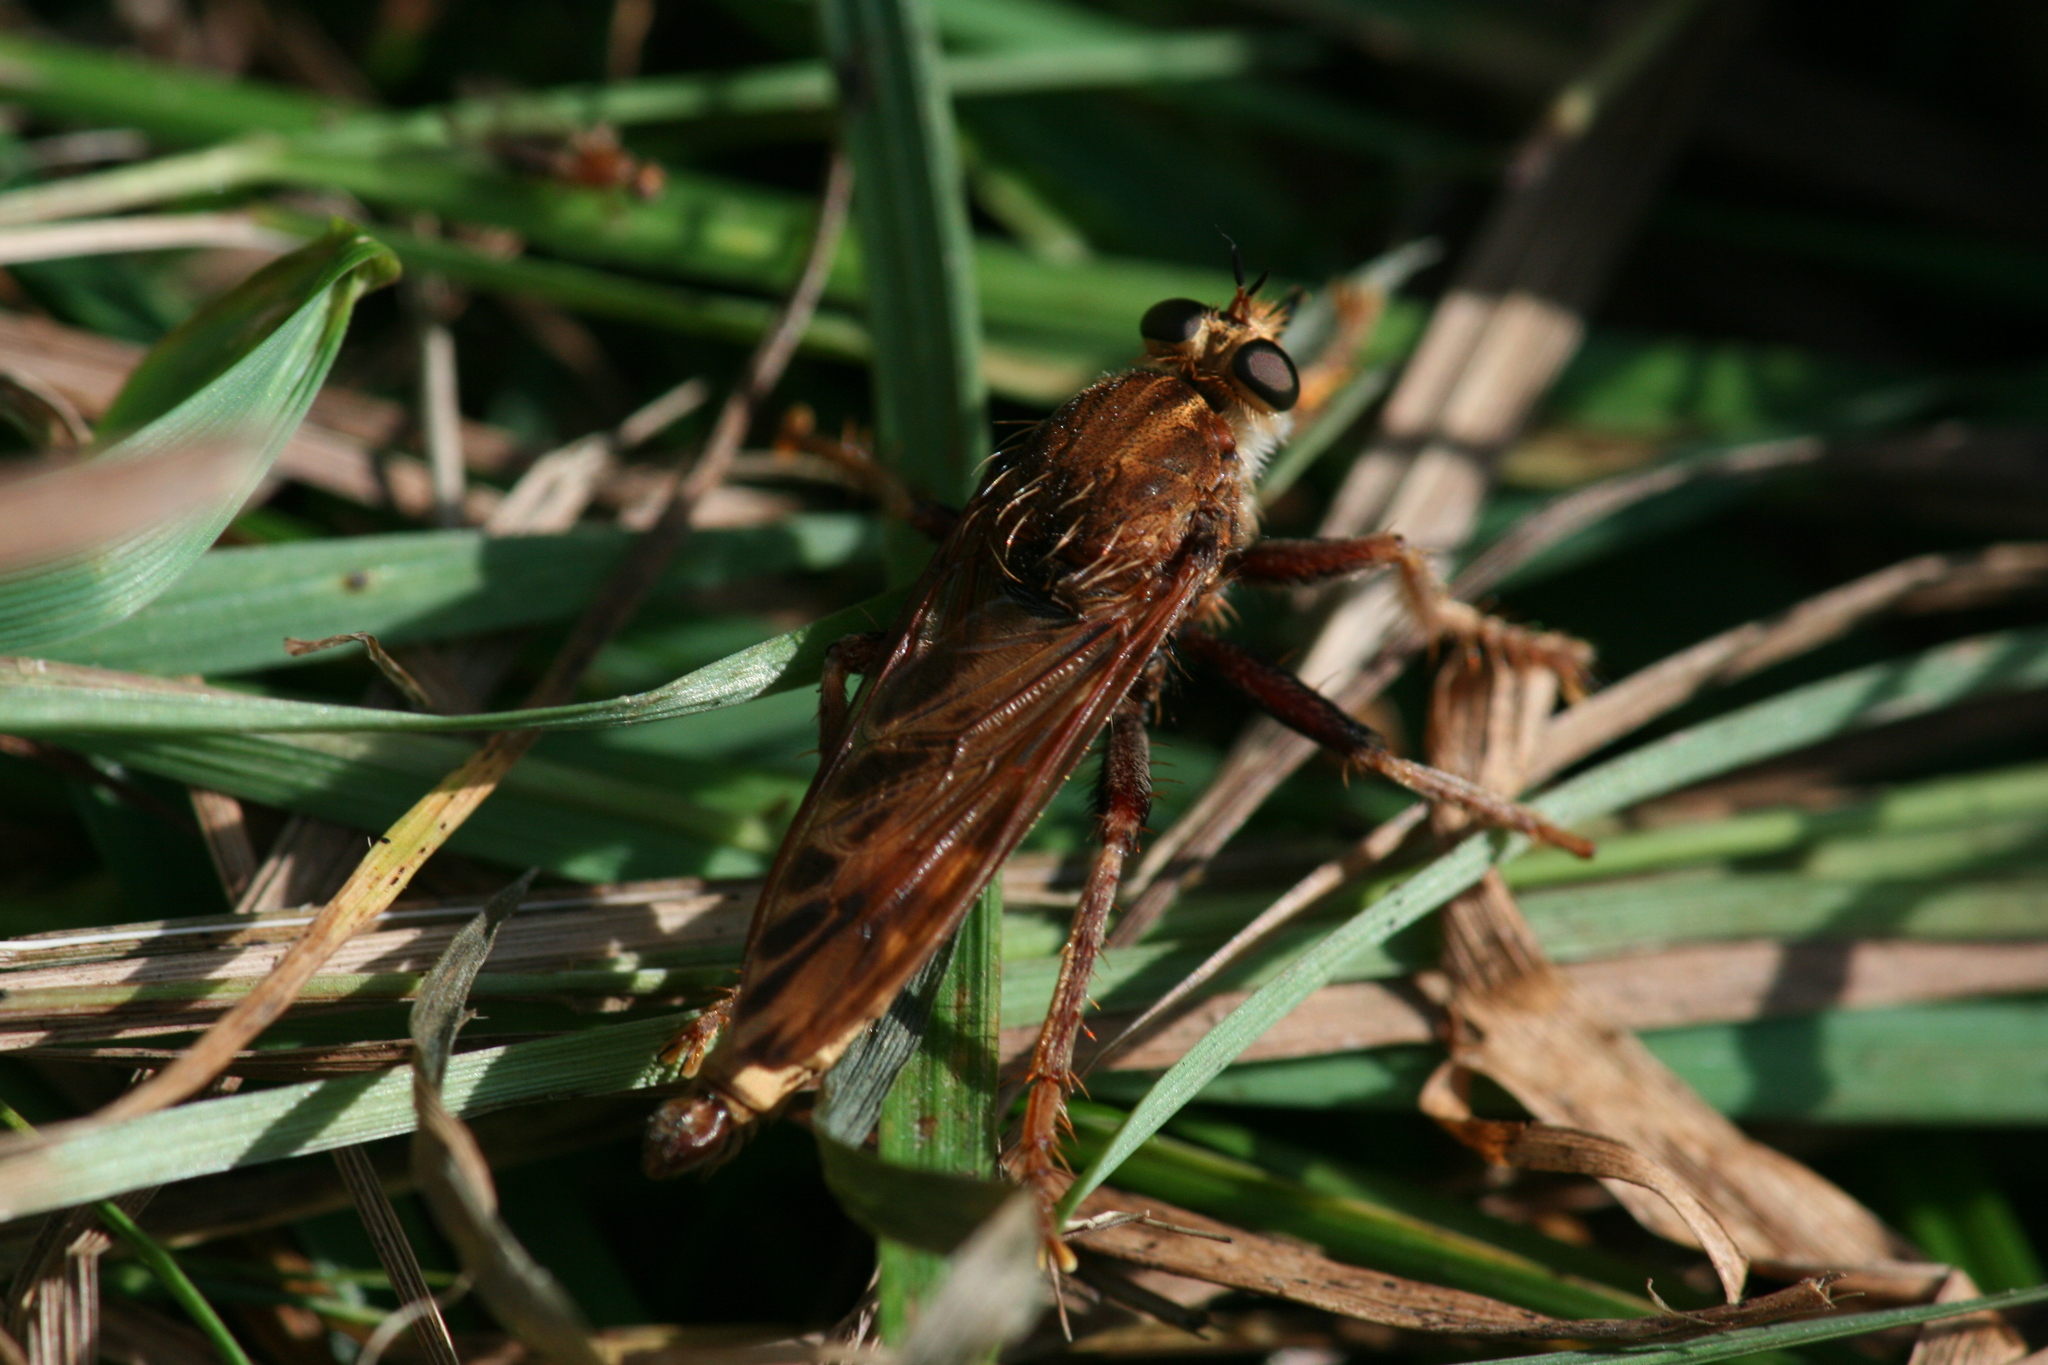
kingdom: Animalia
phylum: Arthropoda
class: Insecta
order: Diptera
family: Asilidae
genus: Asilus
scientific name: Asilus crabroniformis
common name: Hornet robberfly
